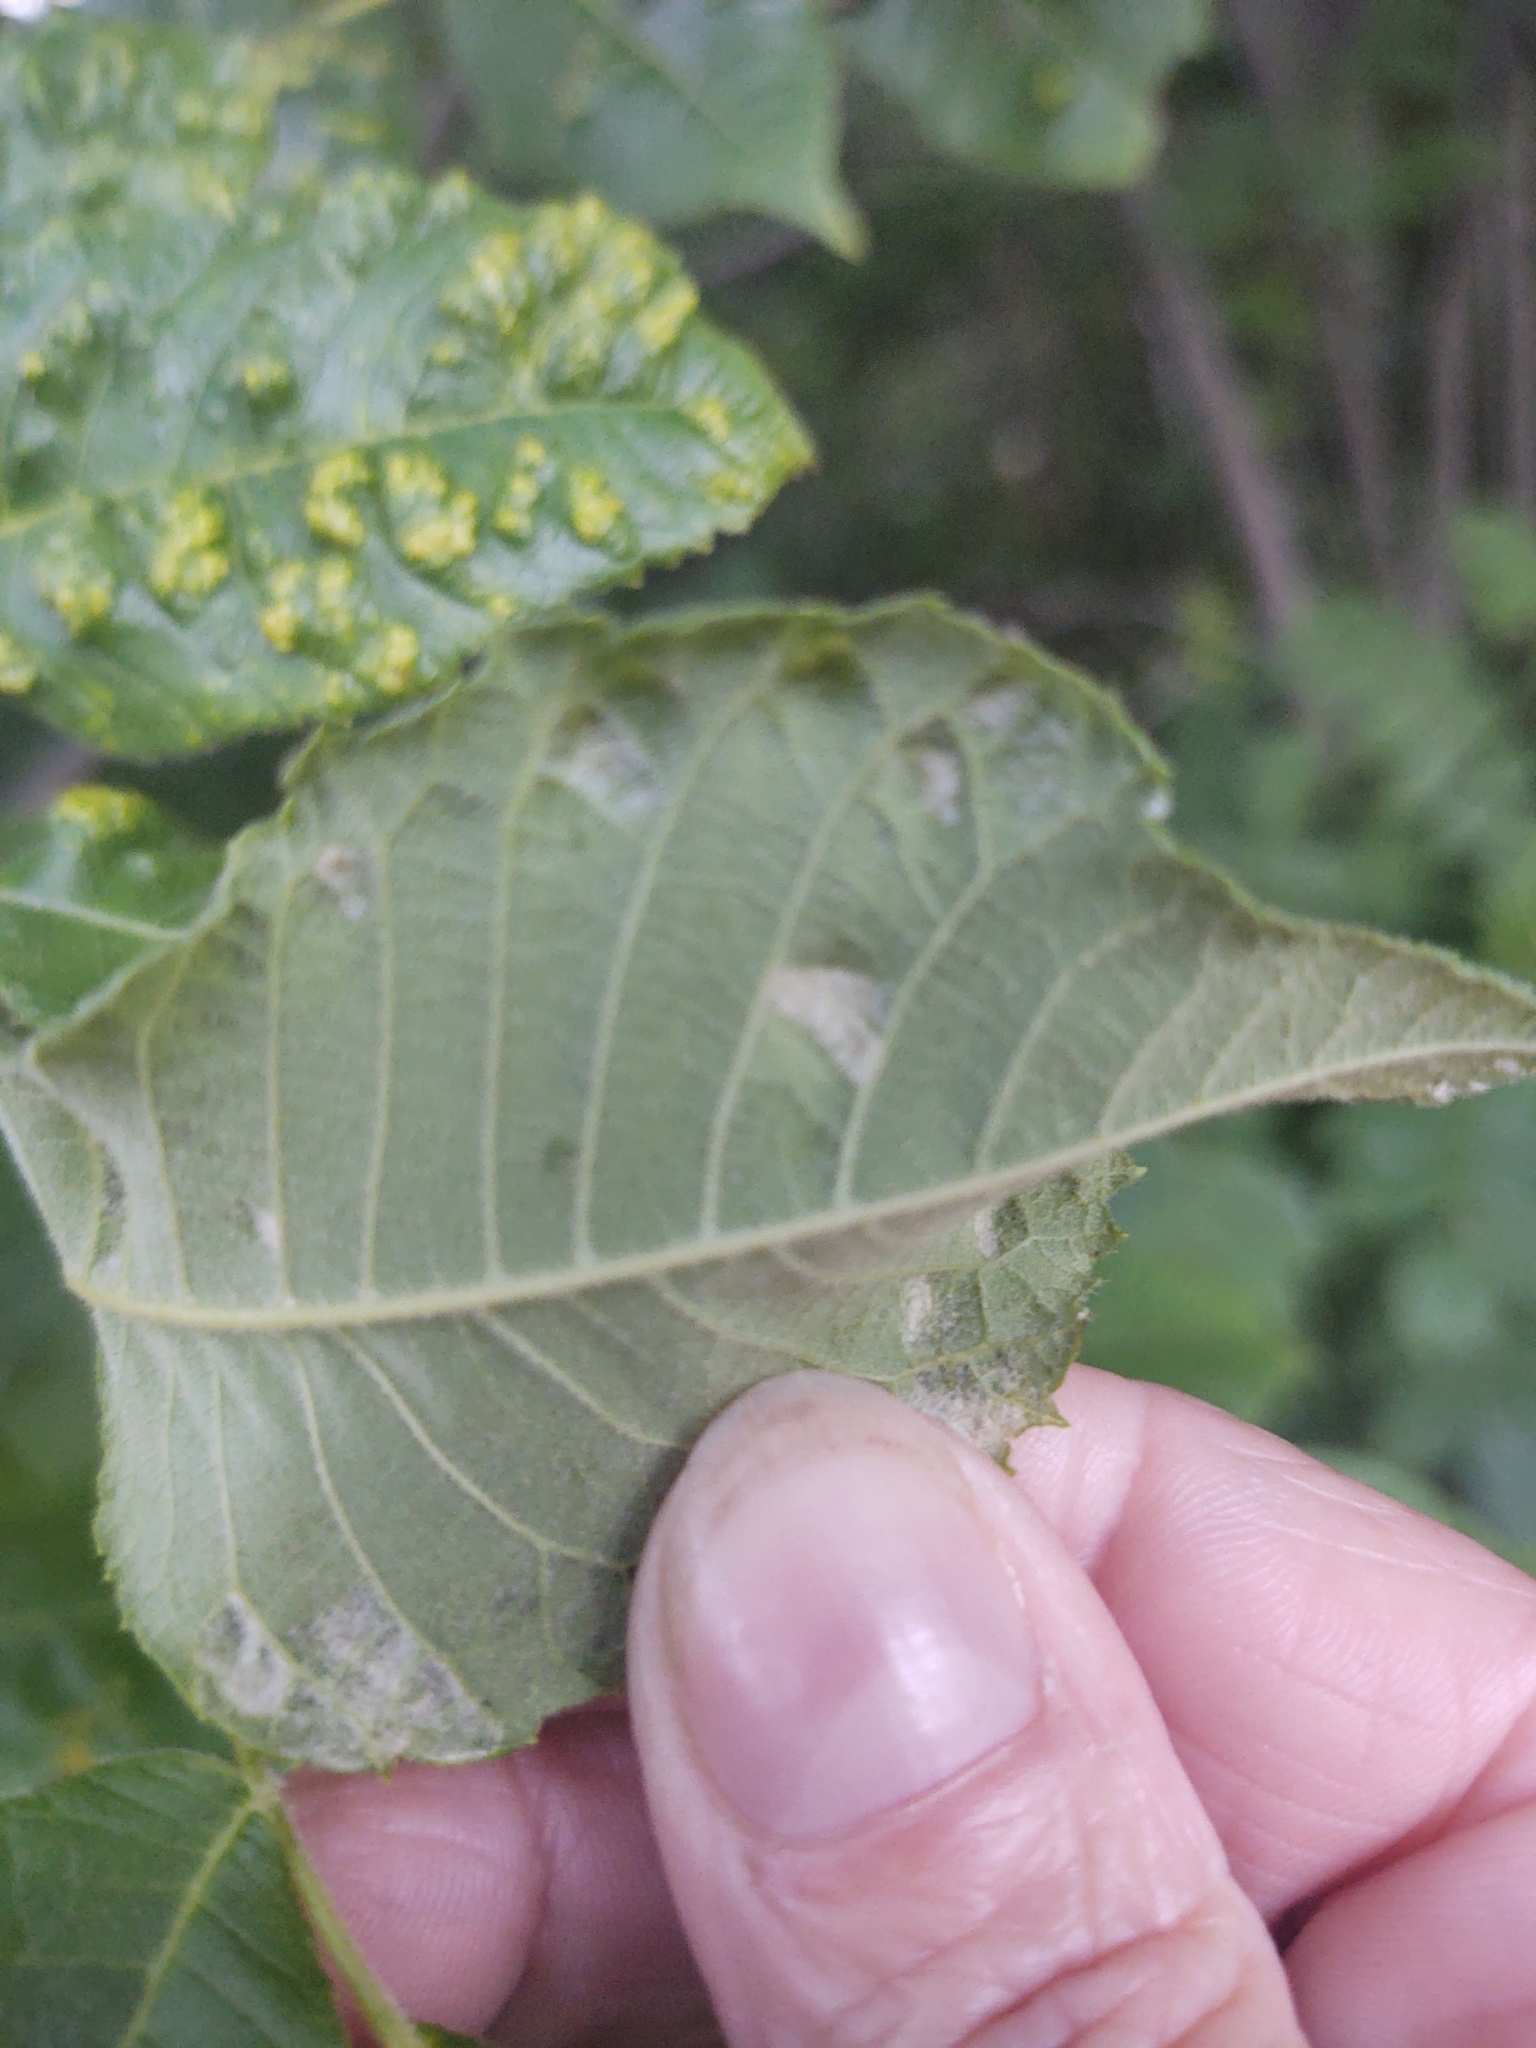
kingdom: Animalia
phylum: Arthropoda
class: Arachnida
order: Trombidiformes
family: Eriophyidae
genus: Aceria
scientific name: Aceria
